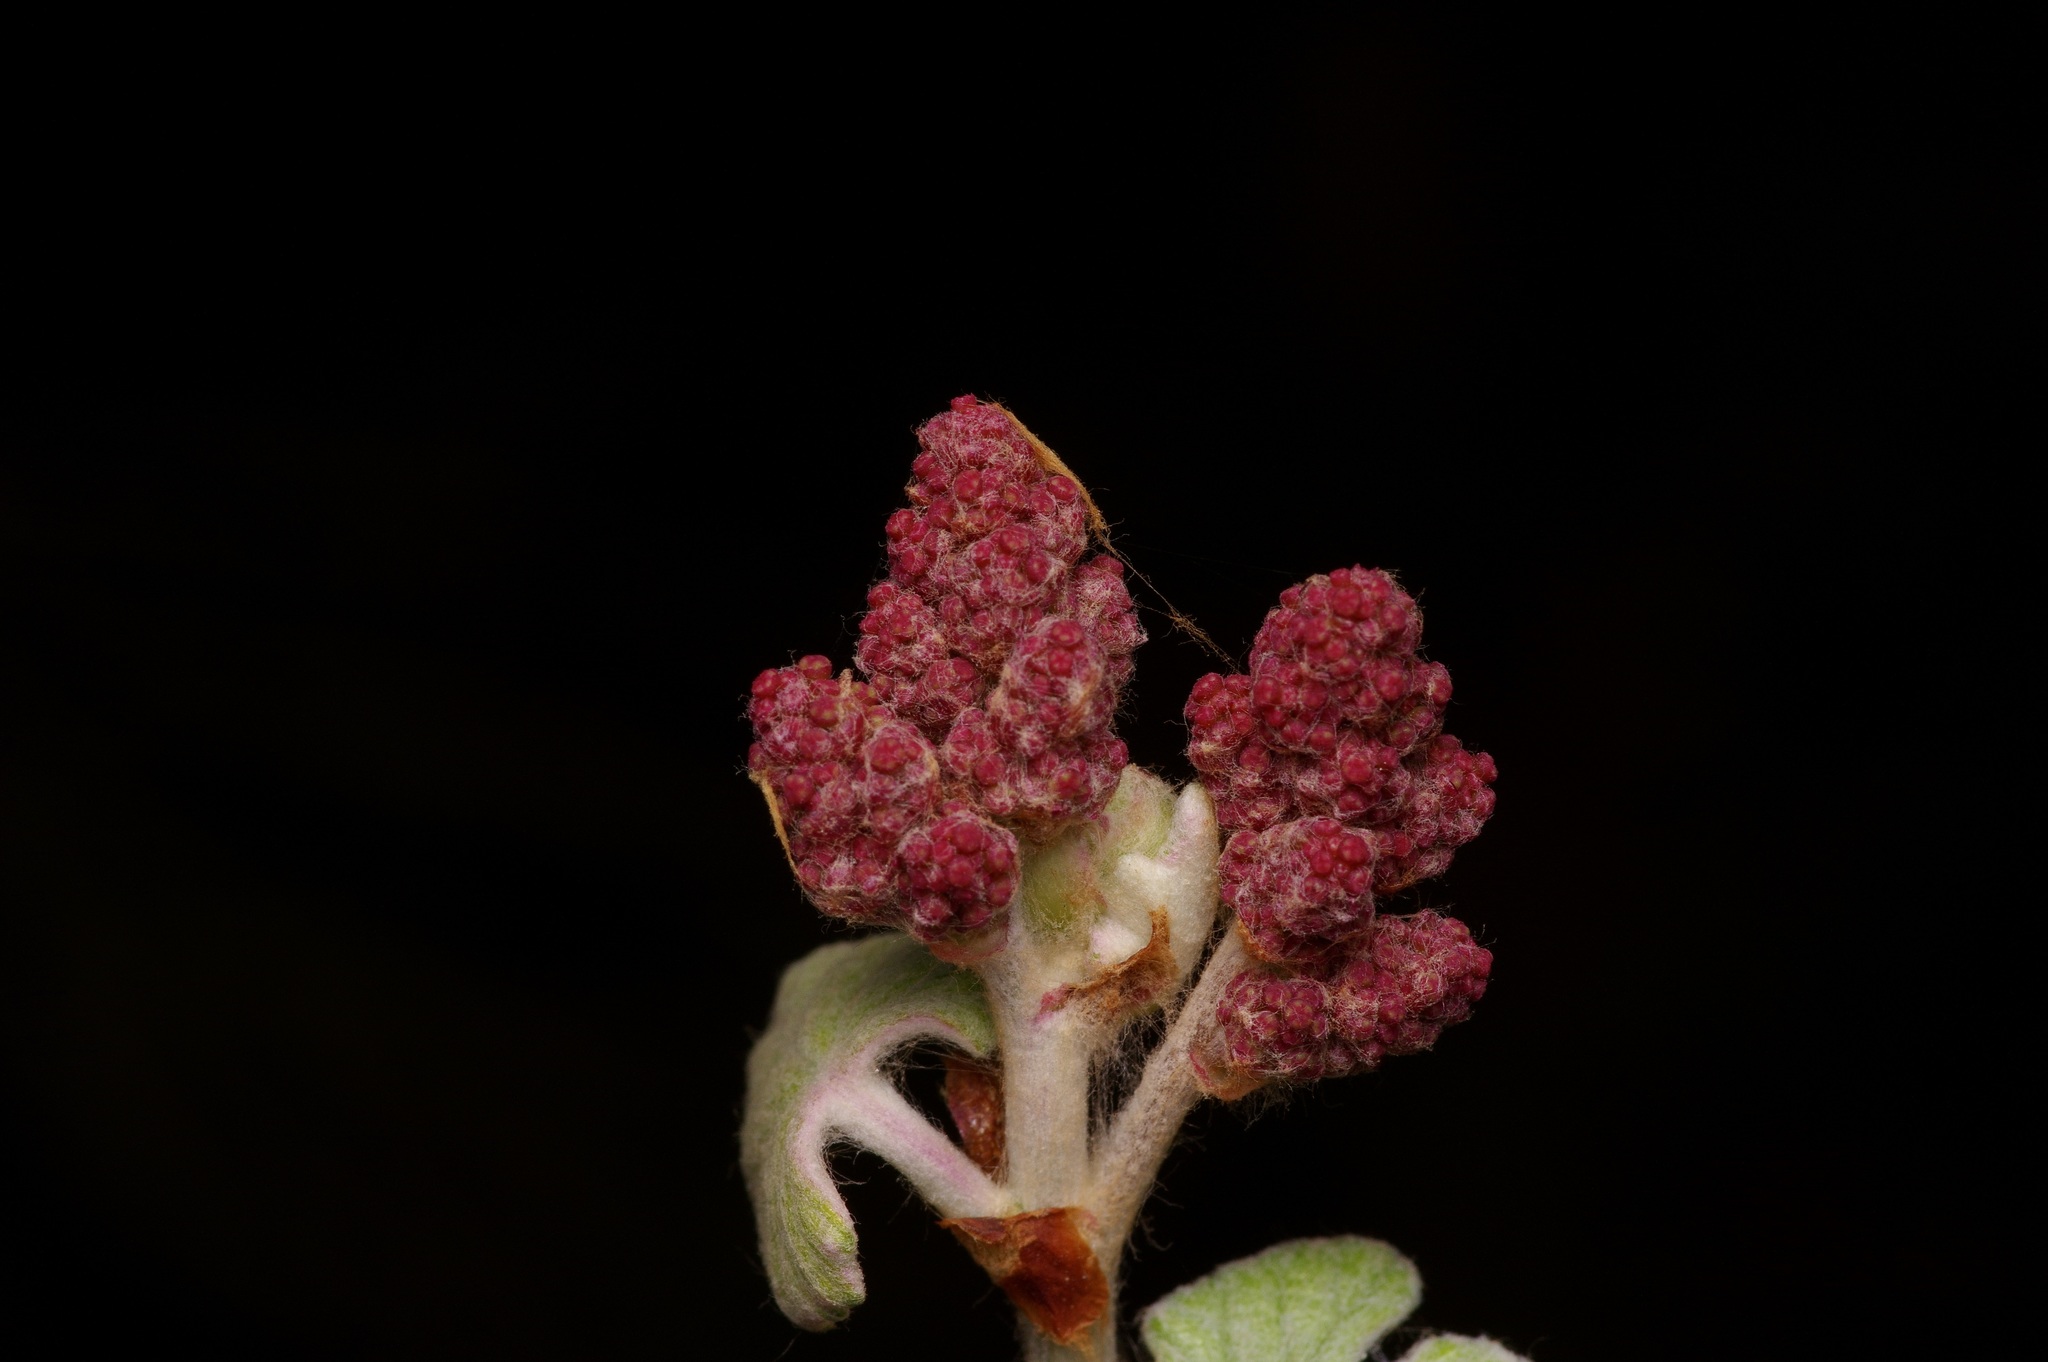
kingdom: Plantae
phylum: Tracheophyta
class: Magnoliopsida
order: Vitales
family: Vitaceae
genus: Vitis
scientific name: Vitis mustangensis
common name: Mustang grape
